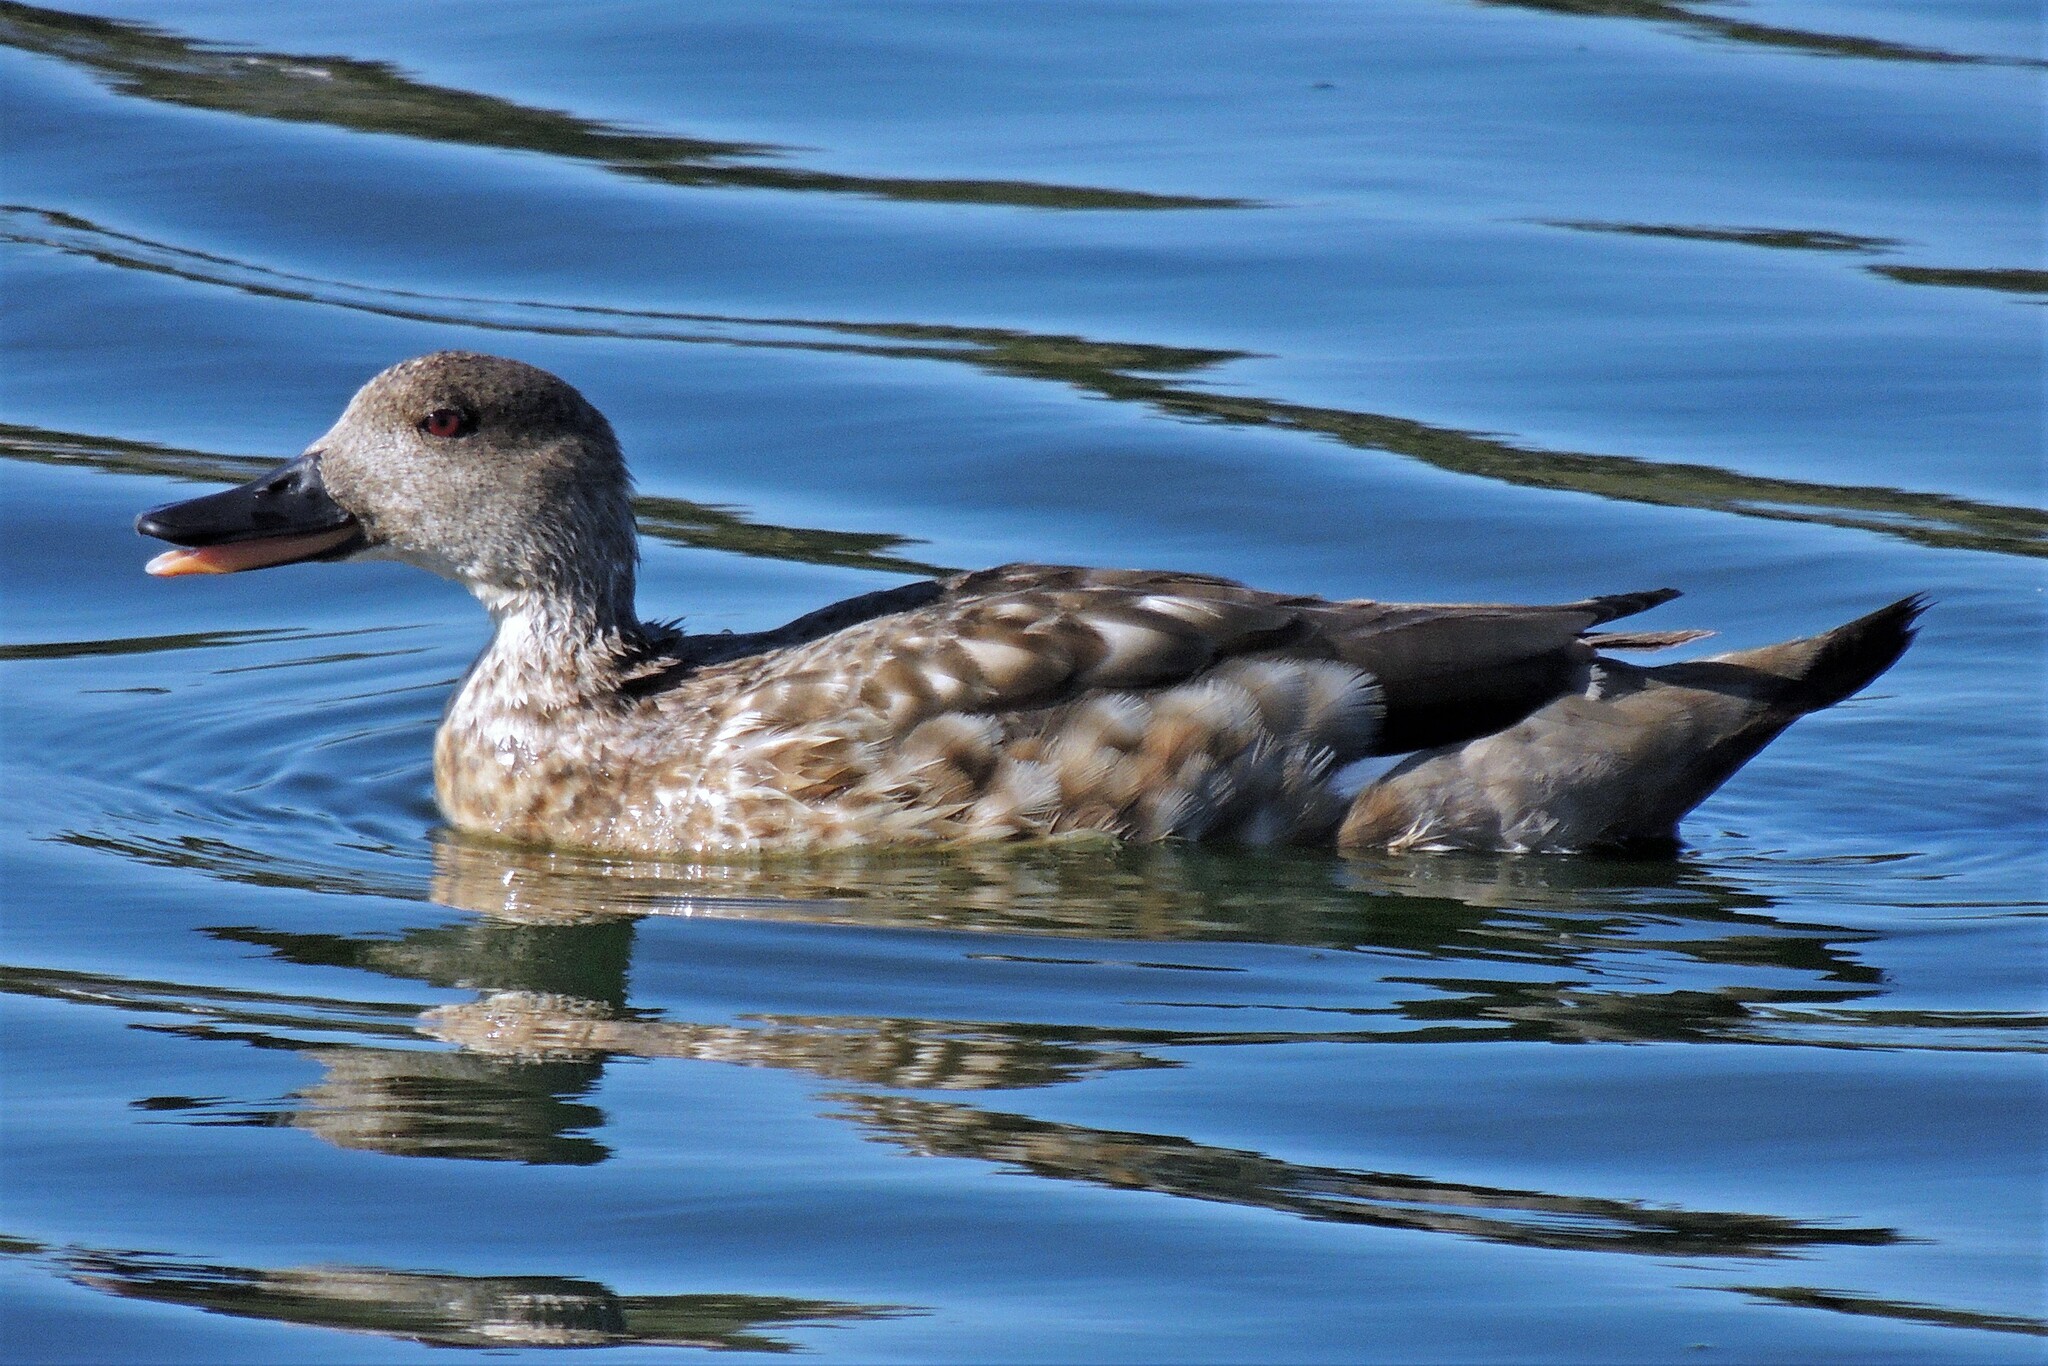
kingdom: Animalia
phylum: Chordata
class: Aves
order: Anseriformes
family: Anatidae
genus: Lophonetta
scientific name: Lophonetta specularioides
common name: Crested duck
